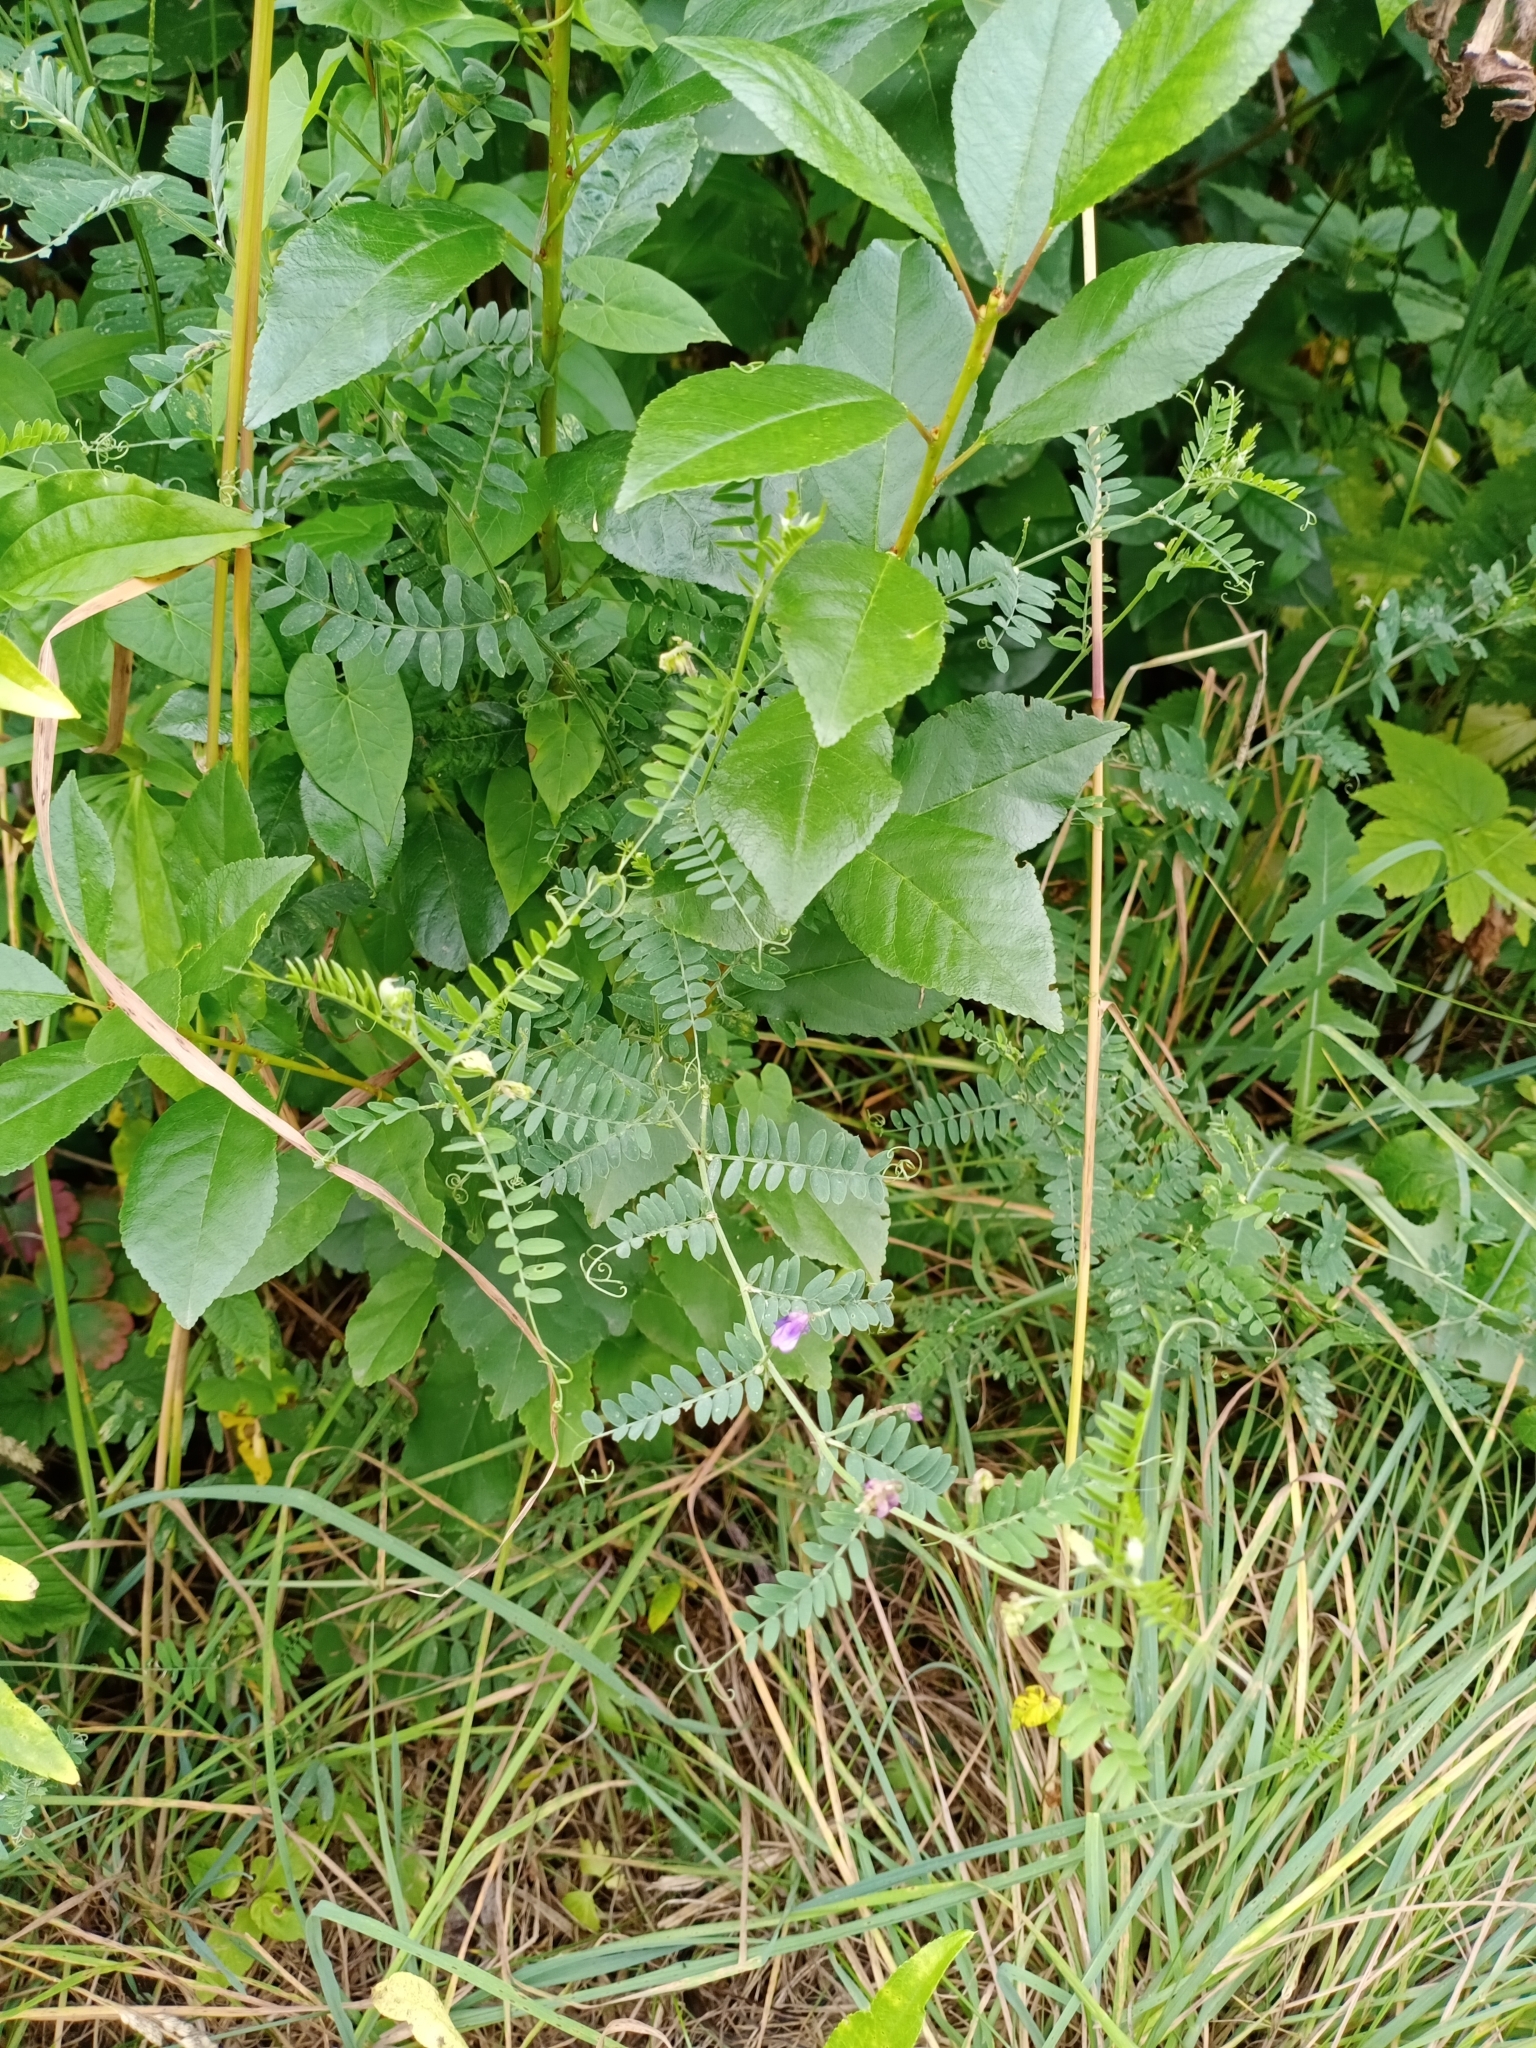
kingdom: Plantae
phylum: Tracheophyta
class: Magnoliopsida
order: Fabales
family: Fabaceae
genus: Vicia
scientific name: Vicia cracca
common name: Bird vetch
